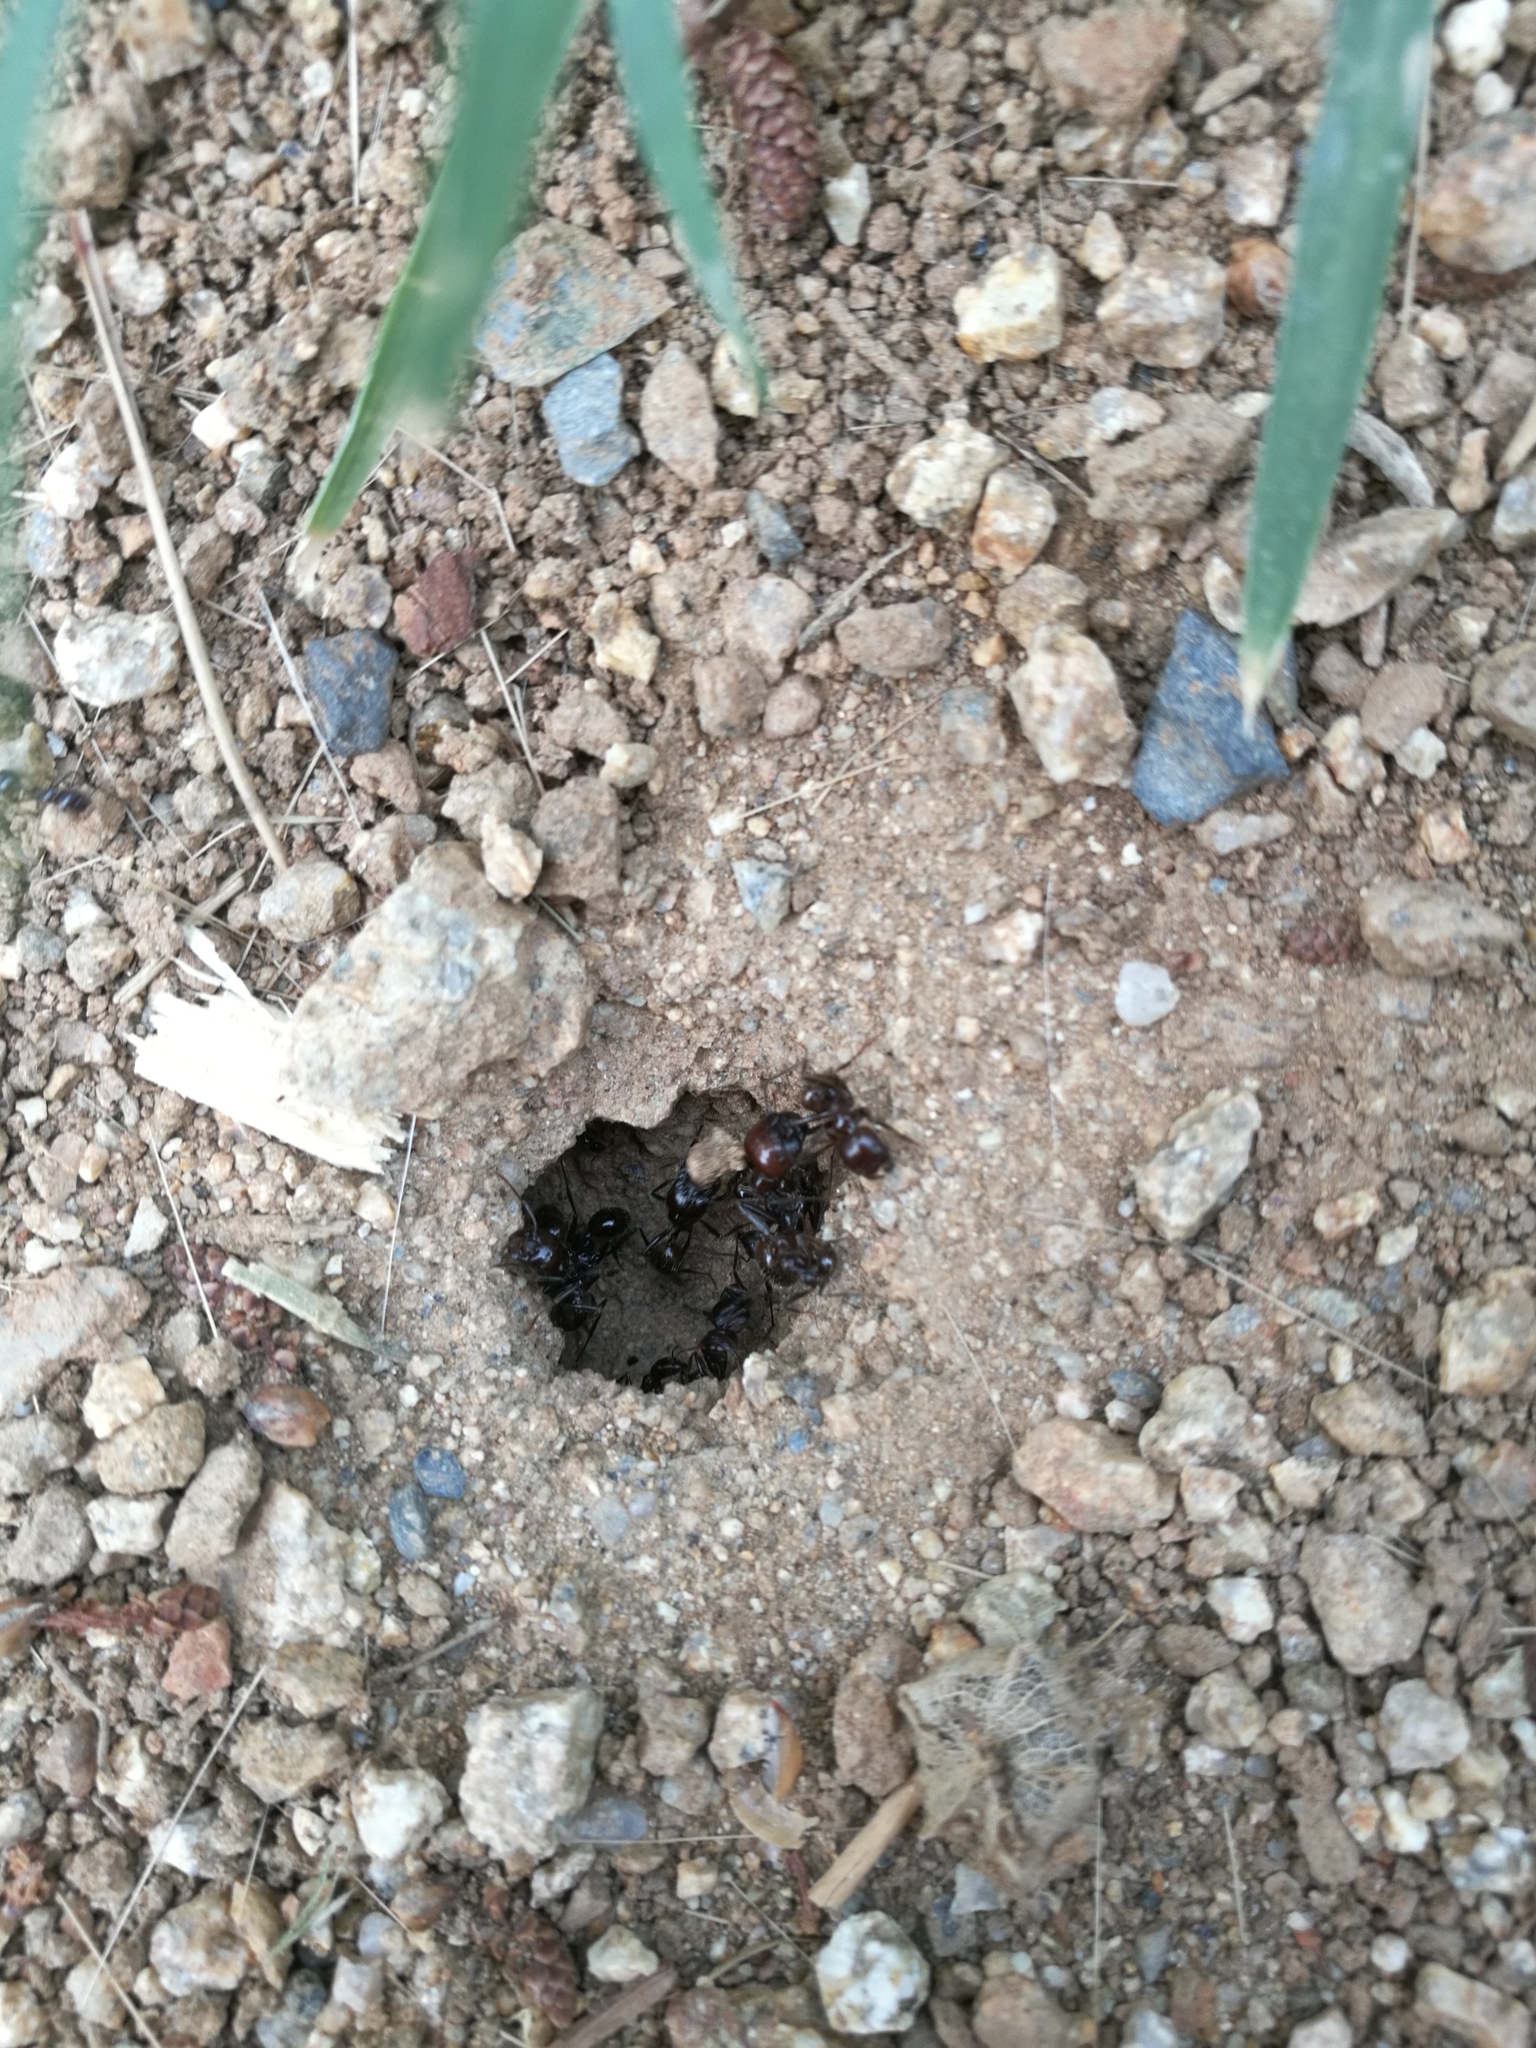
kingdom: Animalia
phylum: Arthropoda
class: Insecta
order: Hymenoptera
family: Formicidae
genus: Messor
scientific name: Messor barbarus
